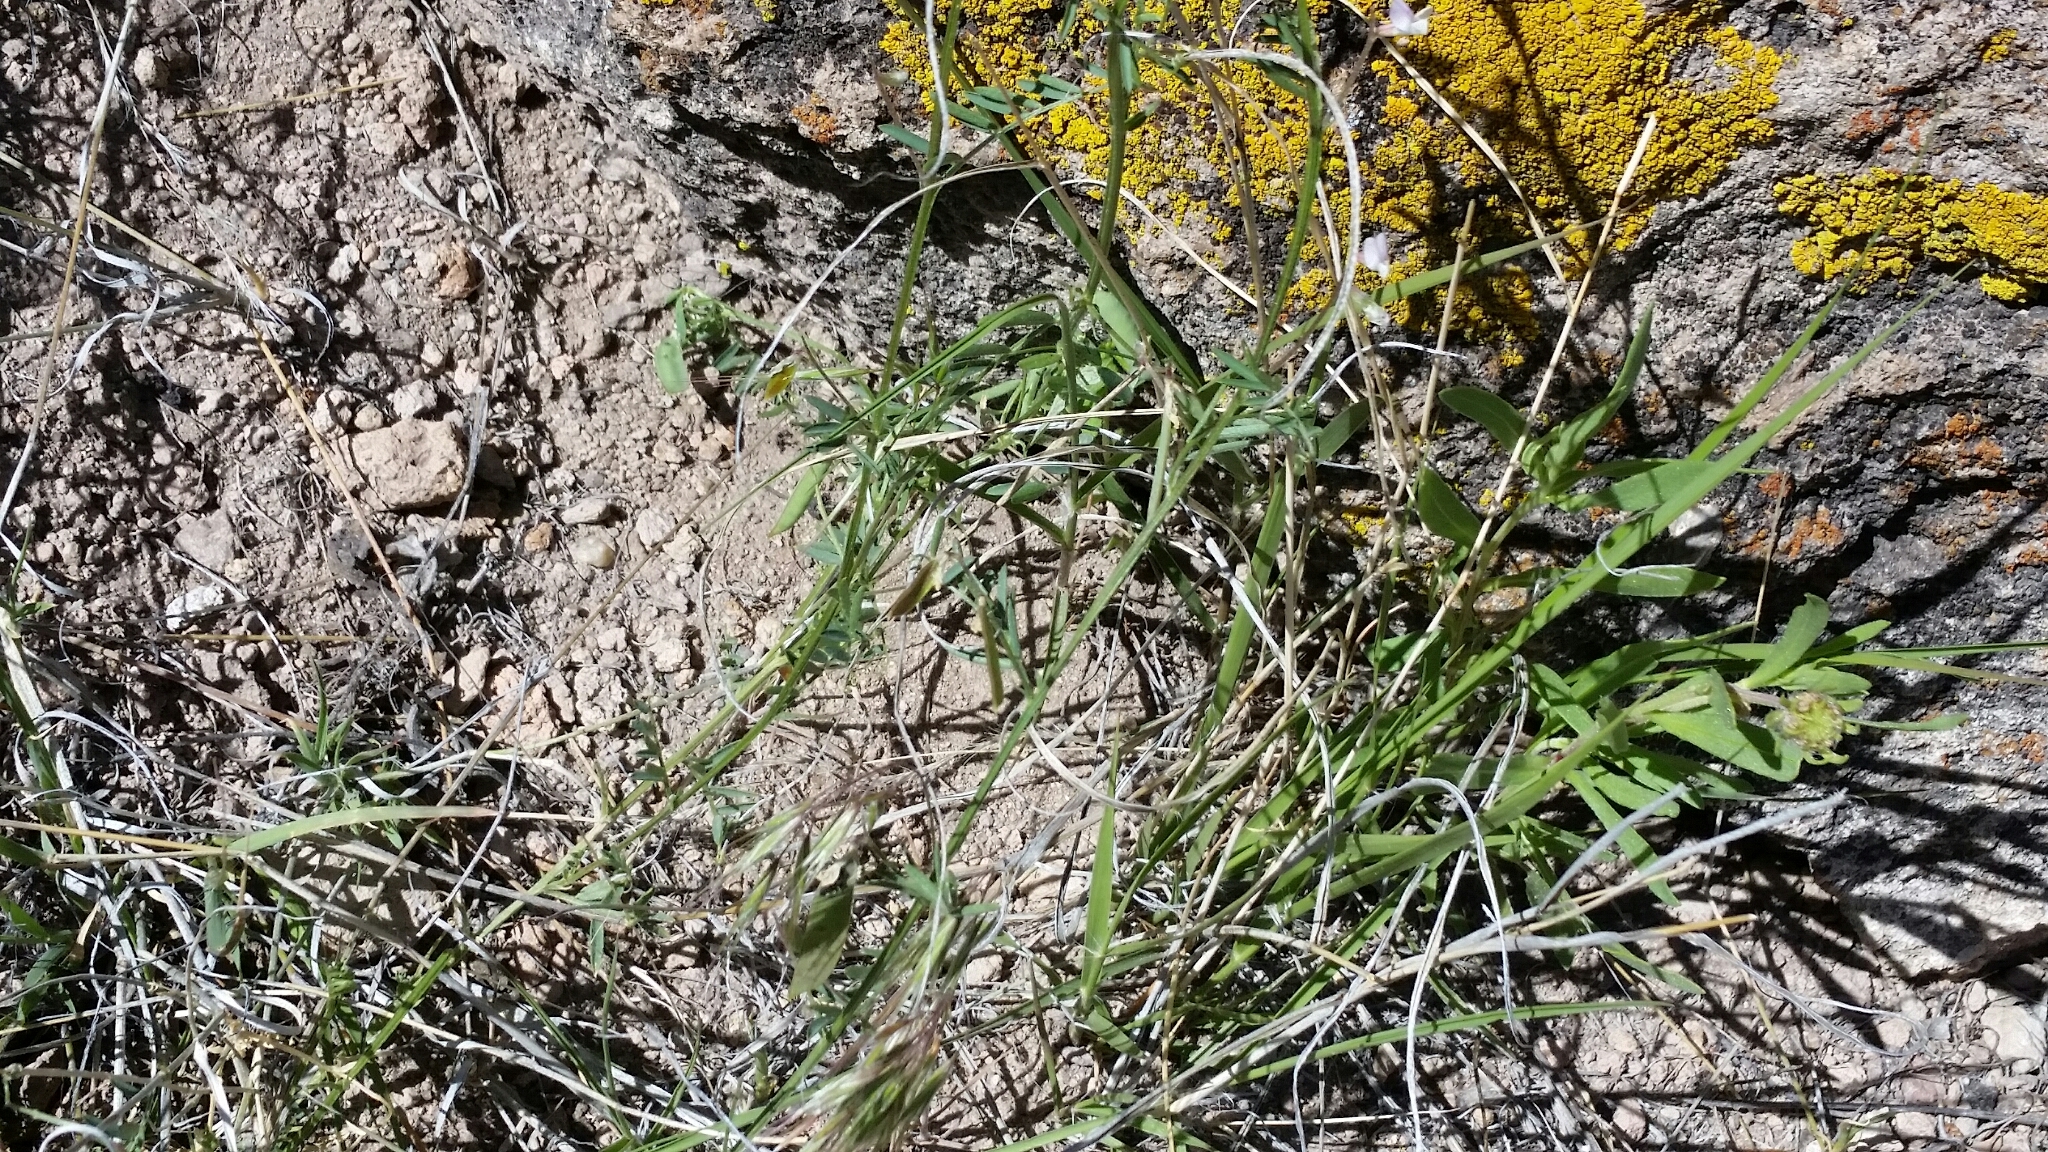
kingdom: Plantae
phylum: Tracheophyta
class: Magnoliopsida
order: Fabales
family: Fabaceae
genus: Vicia
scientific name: Vicia ludoviciana
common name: Louisiana vetch
